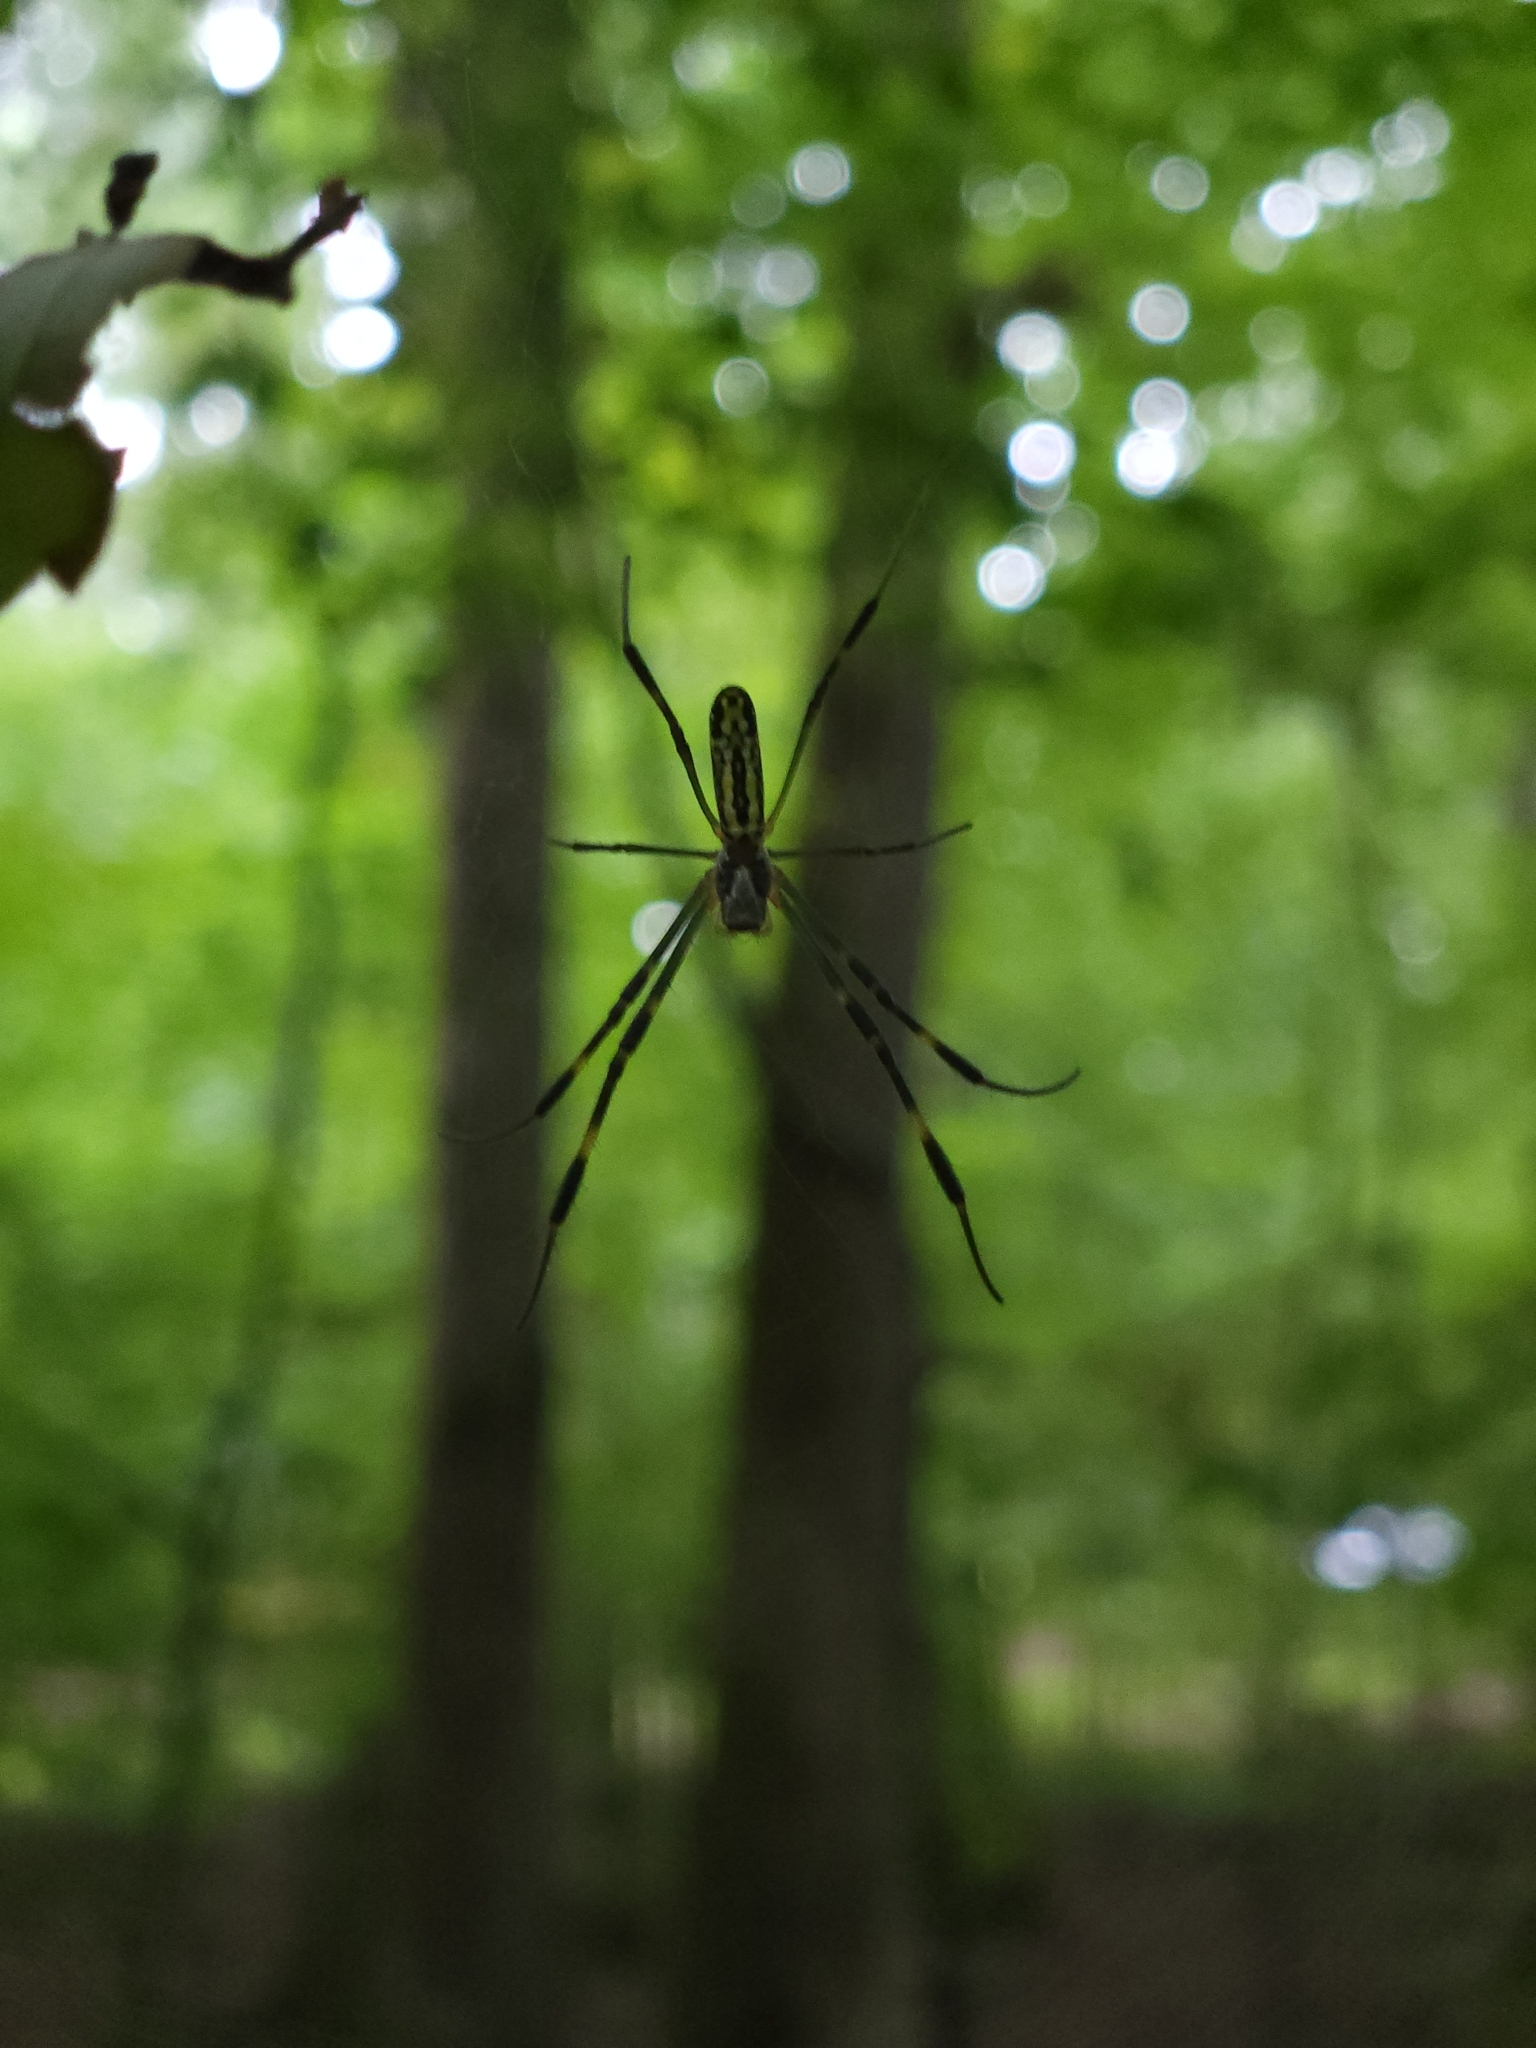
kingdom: Animalia
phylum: Arthropoda
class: Arachnida
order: Araneae
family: Araneidae
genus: Trichonephila
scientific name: Trichonephila clavata
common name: Jorō spider
